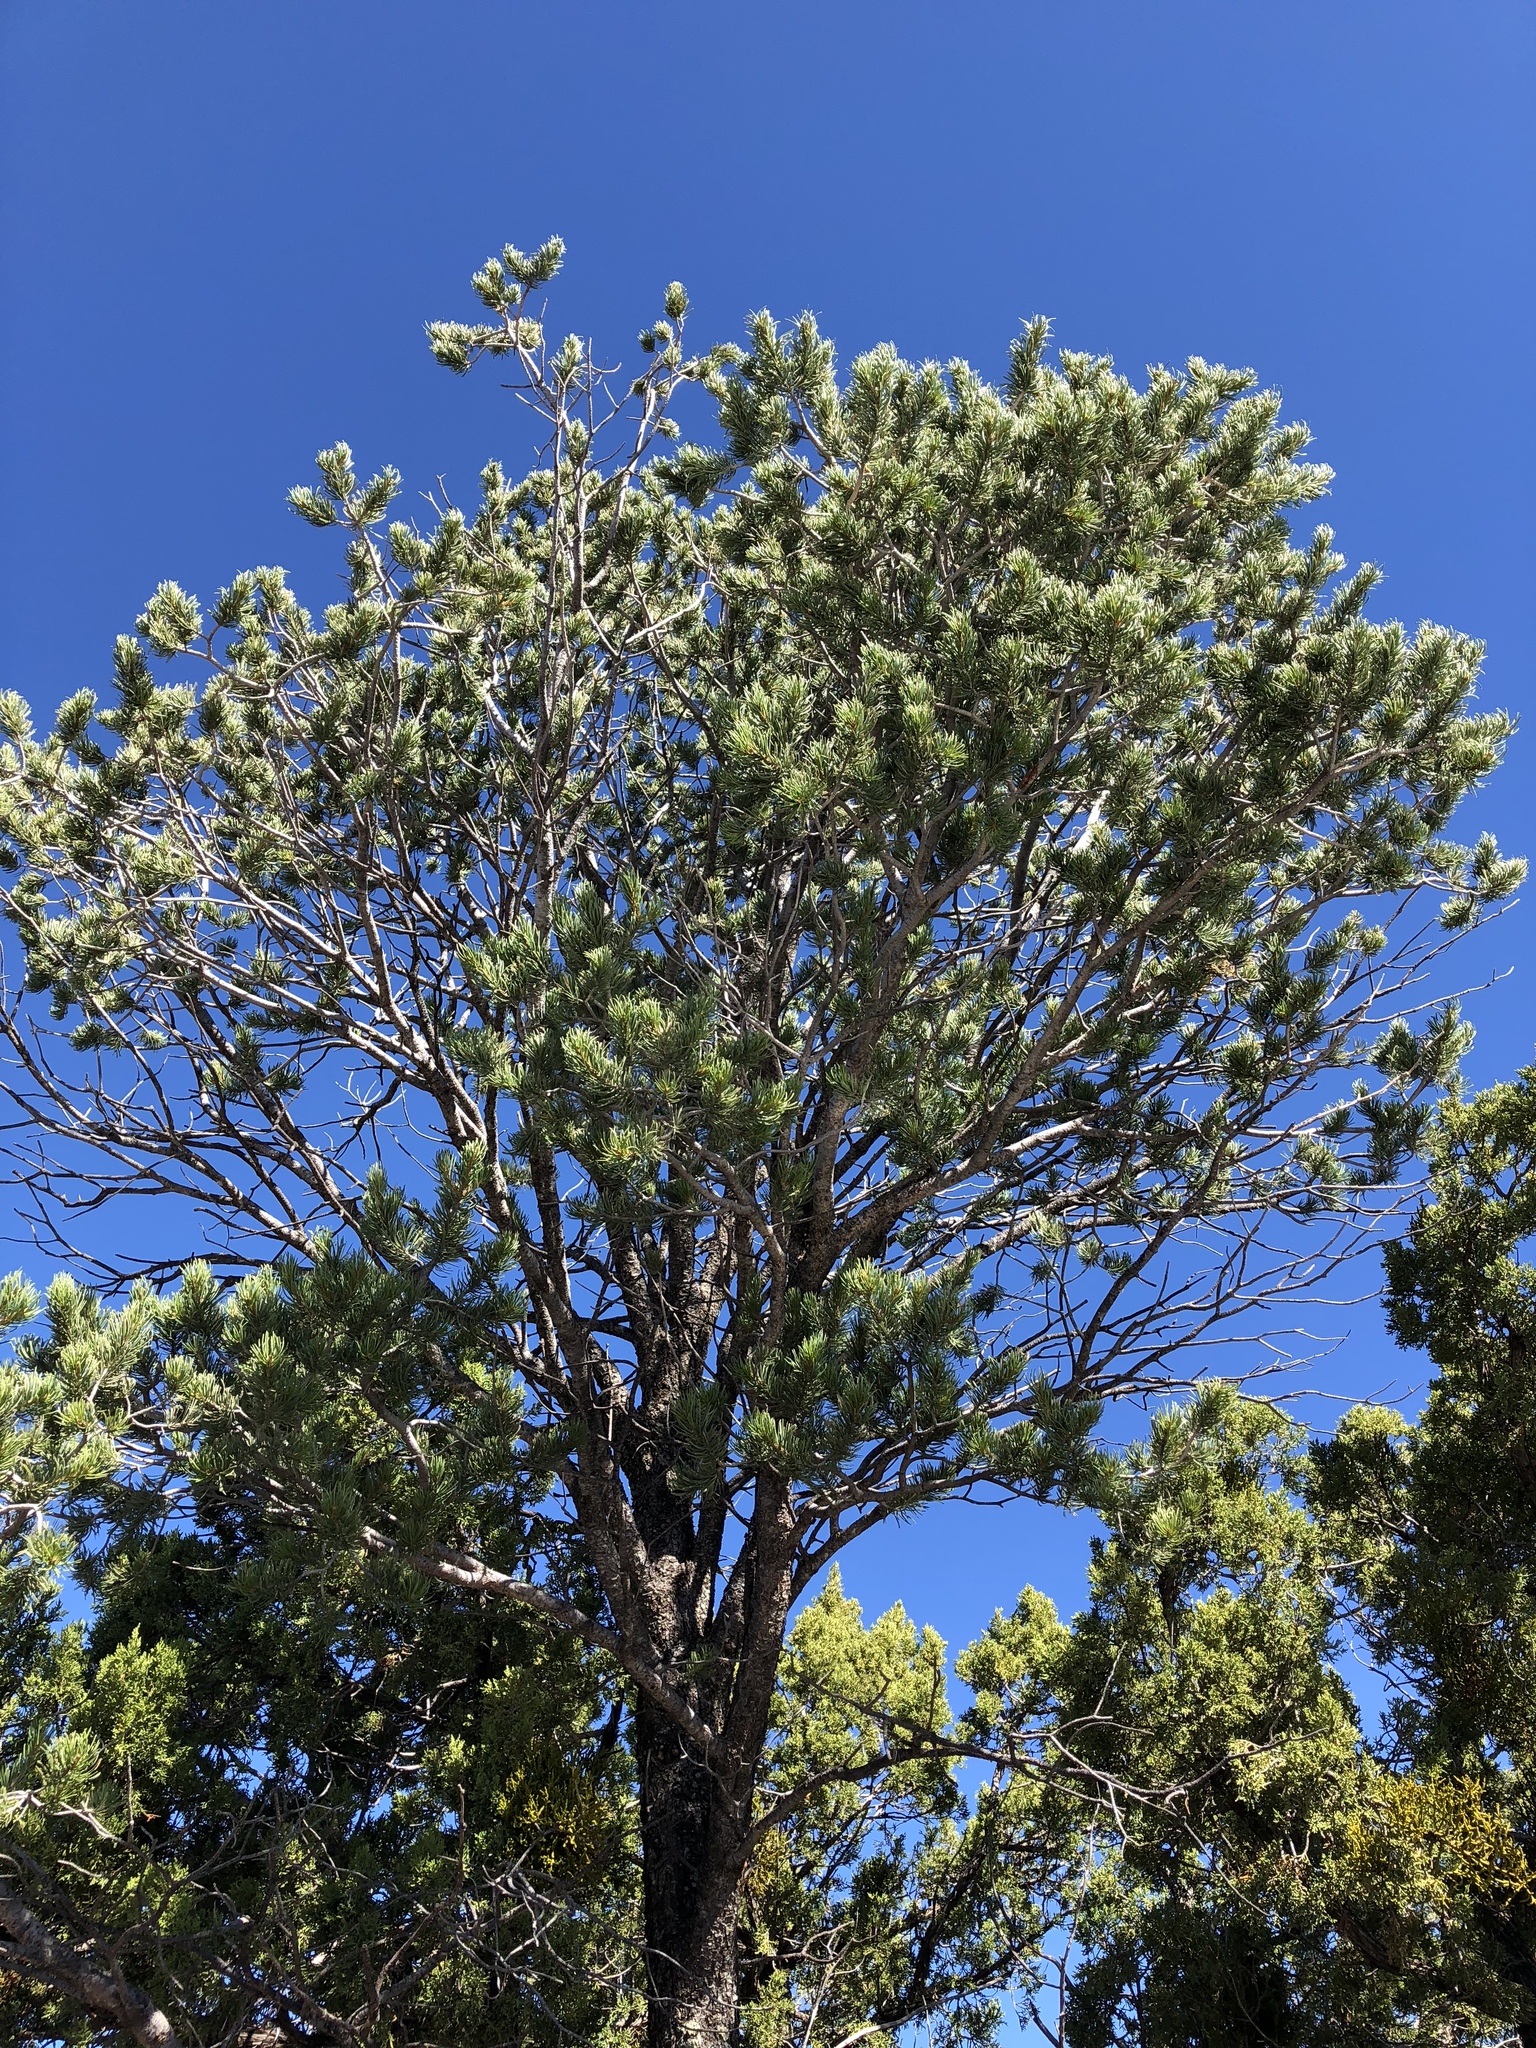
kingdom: Plantae
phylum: Tracheophyta
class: Pinopsida
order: Pinales
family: Pinaceae
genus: Pinus
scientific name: Pinus edulis
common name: Colorado pinyon
